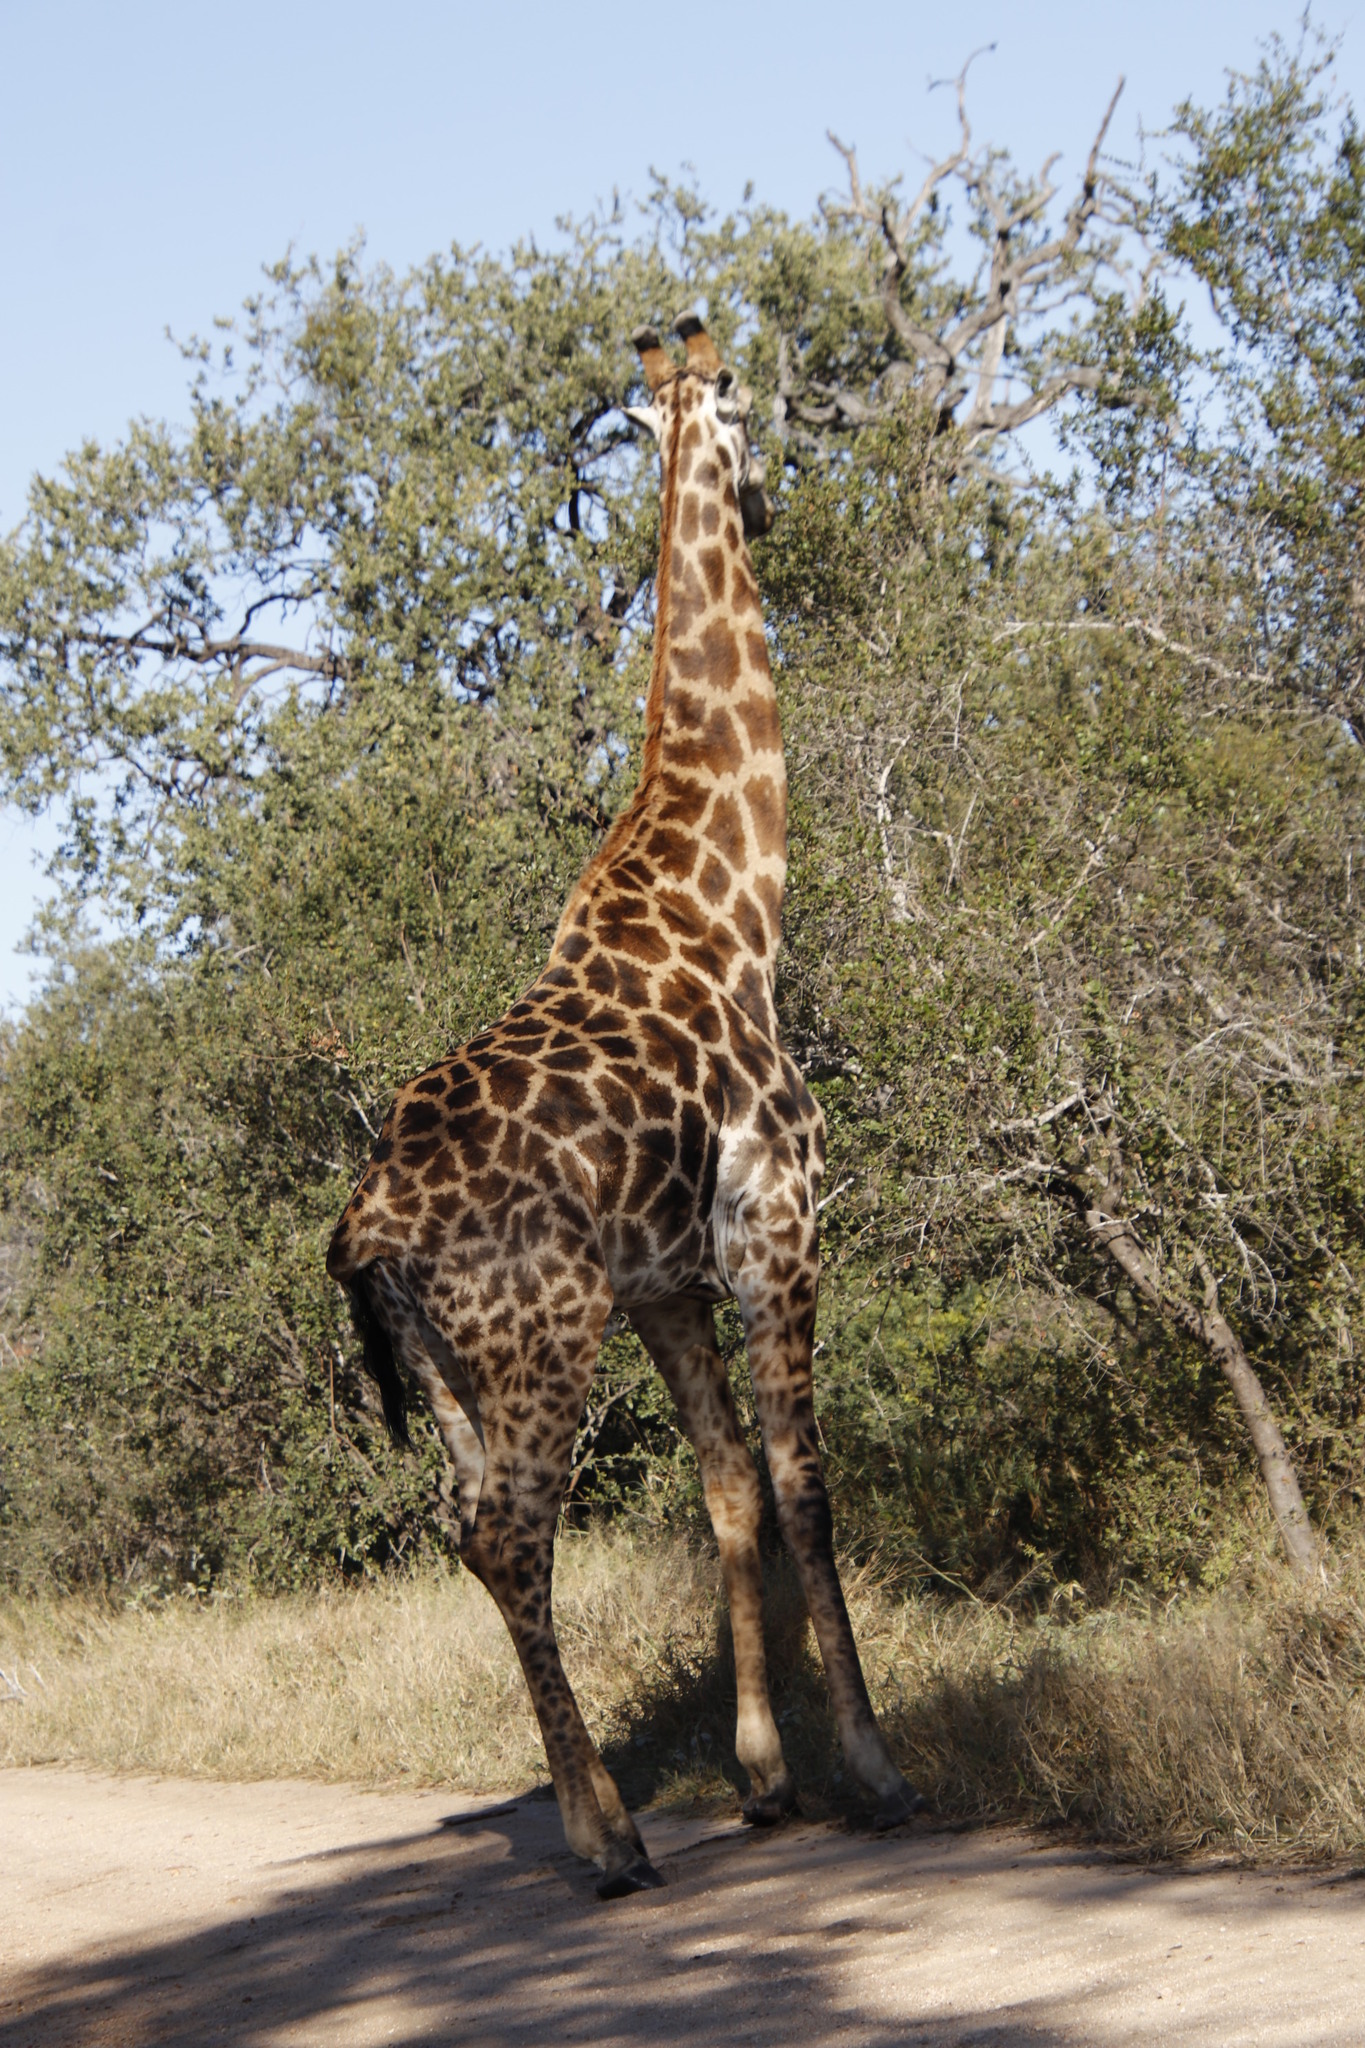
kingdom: Animalia
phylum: Chordata
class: Mammalia
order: Artiodactyla
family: Giraffidae
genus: Giraffa
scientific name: Giraffa giraffa
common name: Southern giraffe
